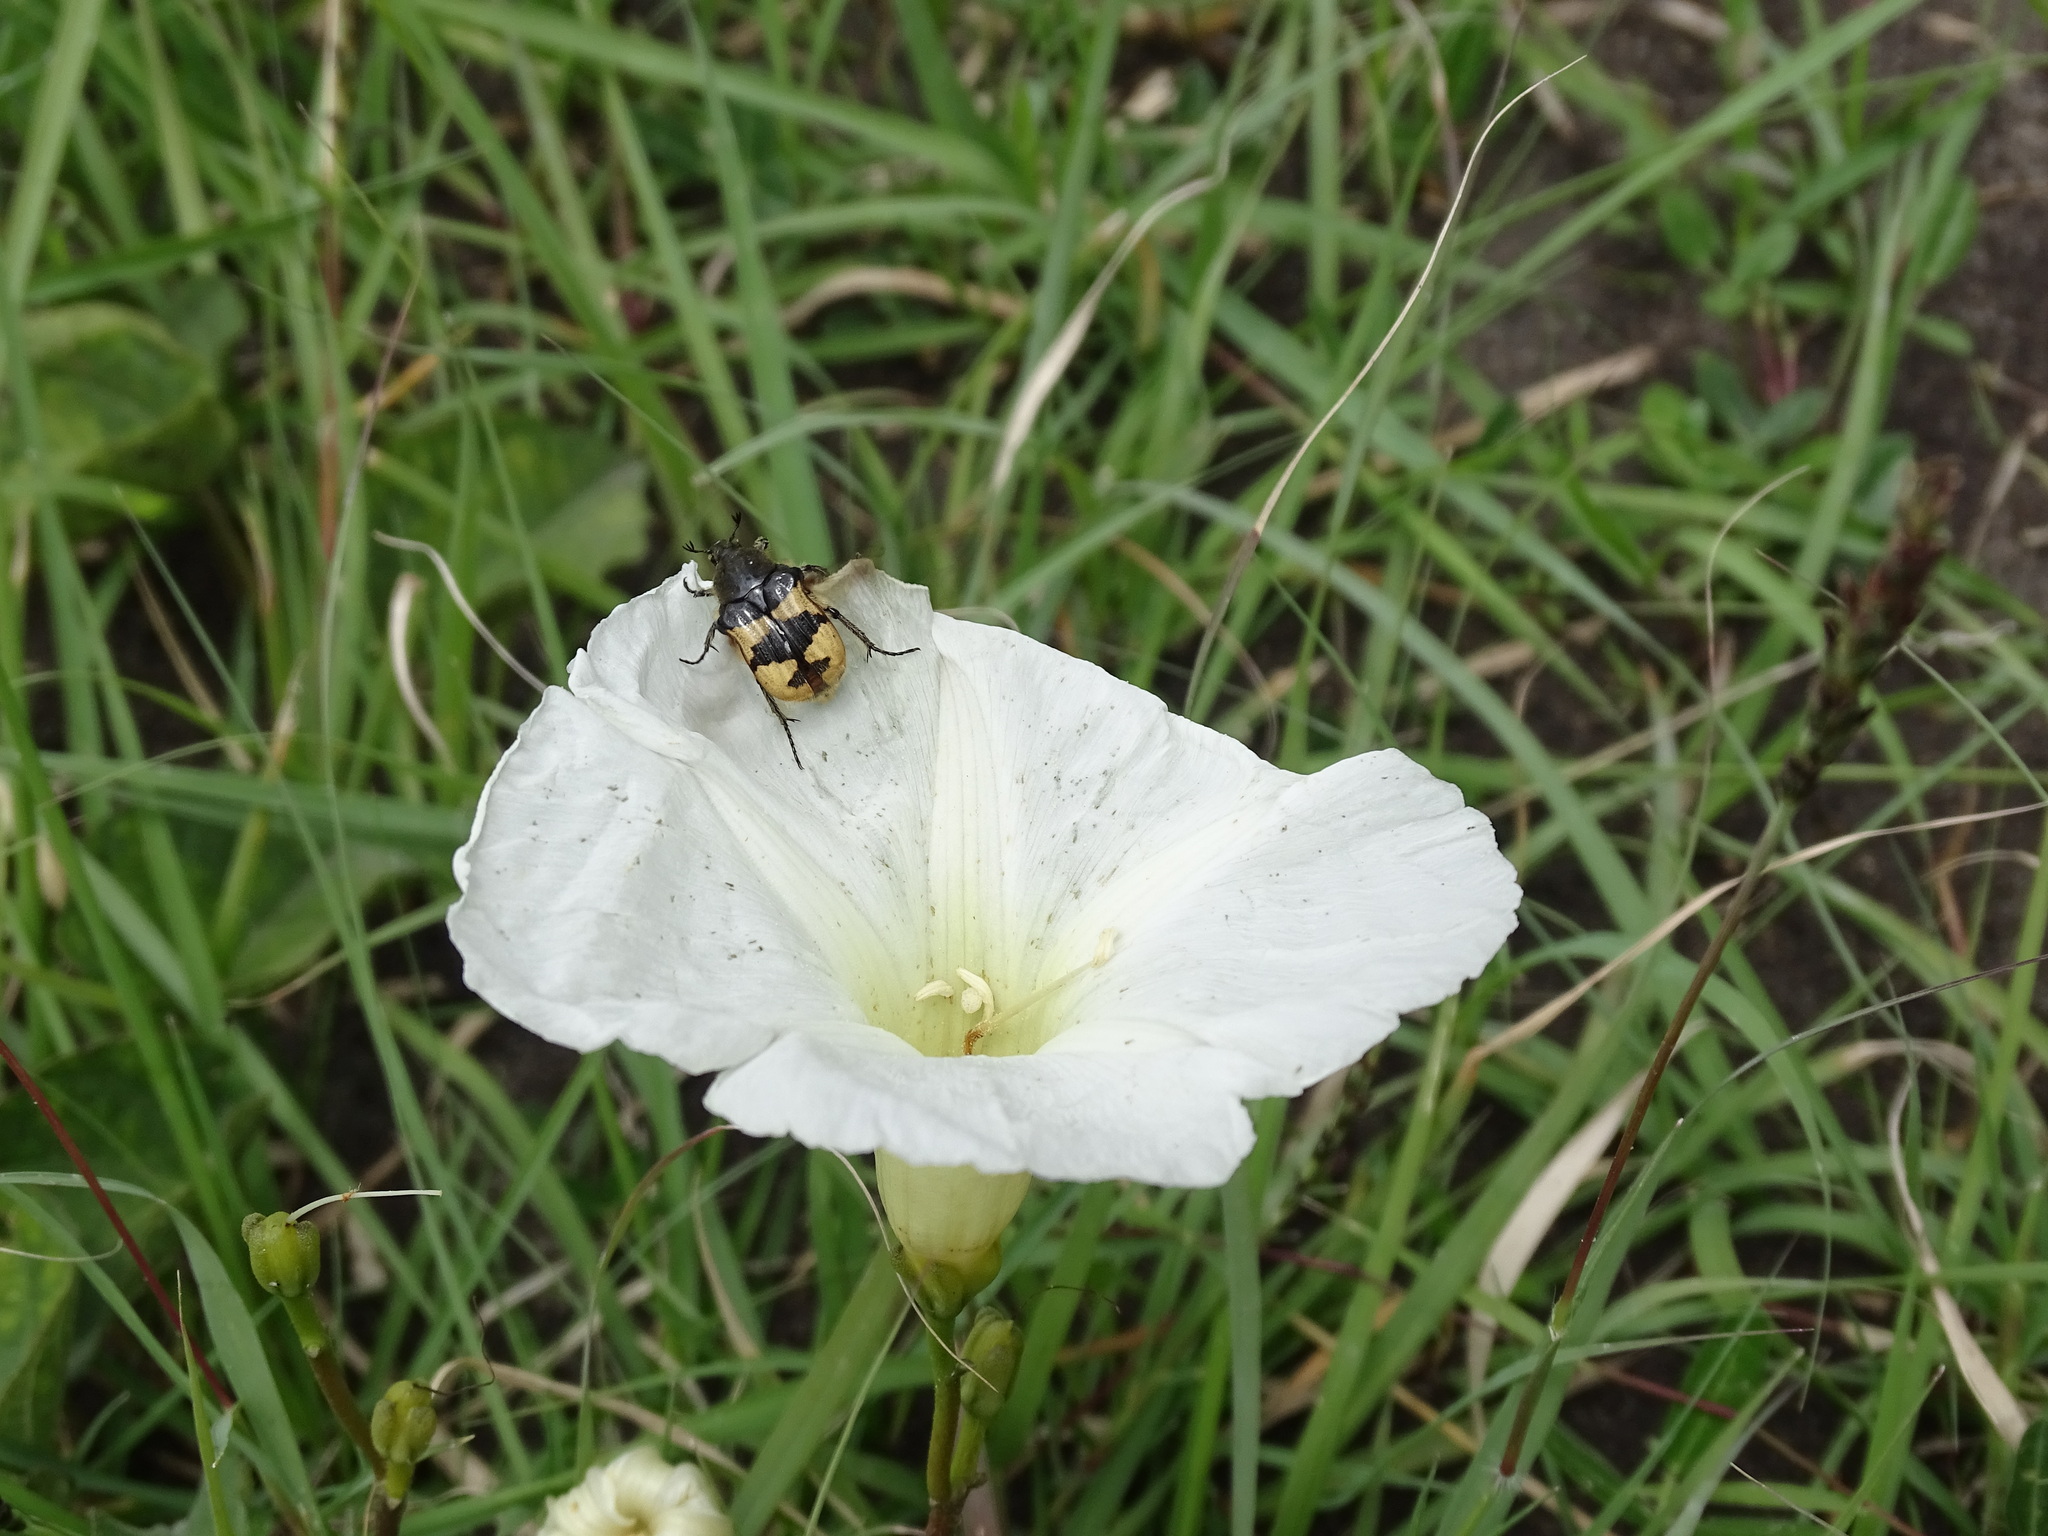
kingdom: Plantae
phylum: Tracheophyta
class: Magnoliopsida
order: Solanales
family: Convolvulaceae
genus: Ipomoea
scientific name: Ipomoea proxima
